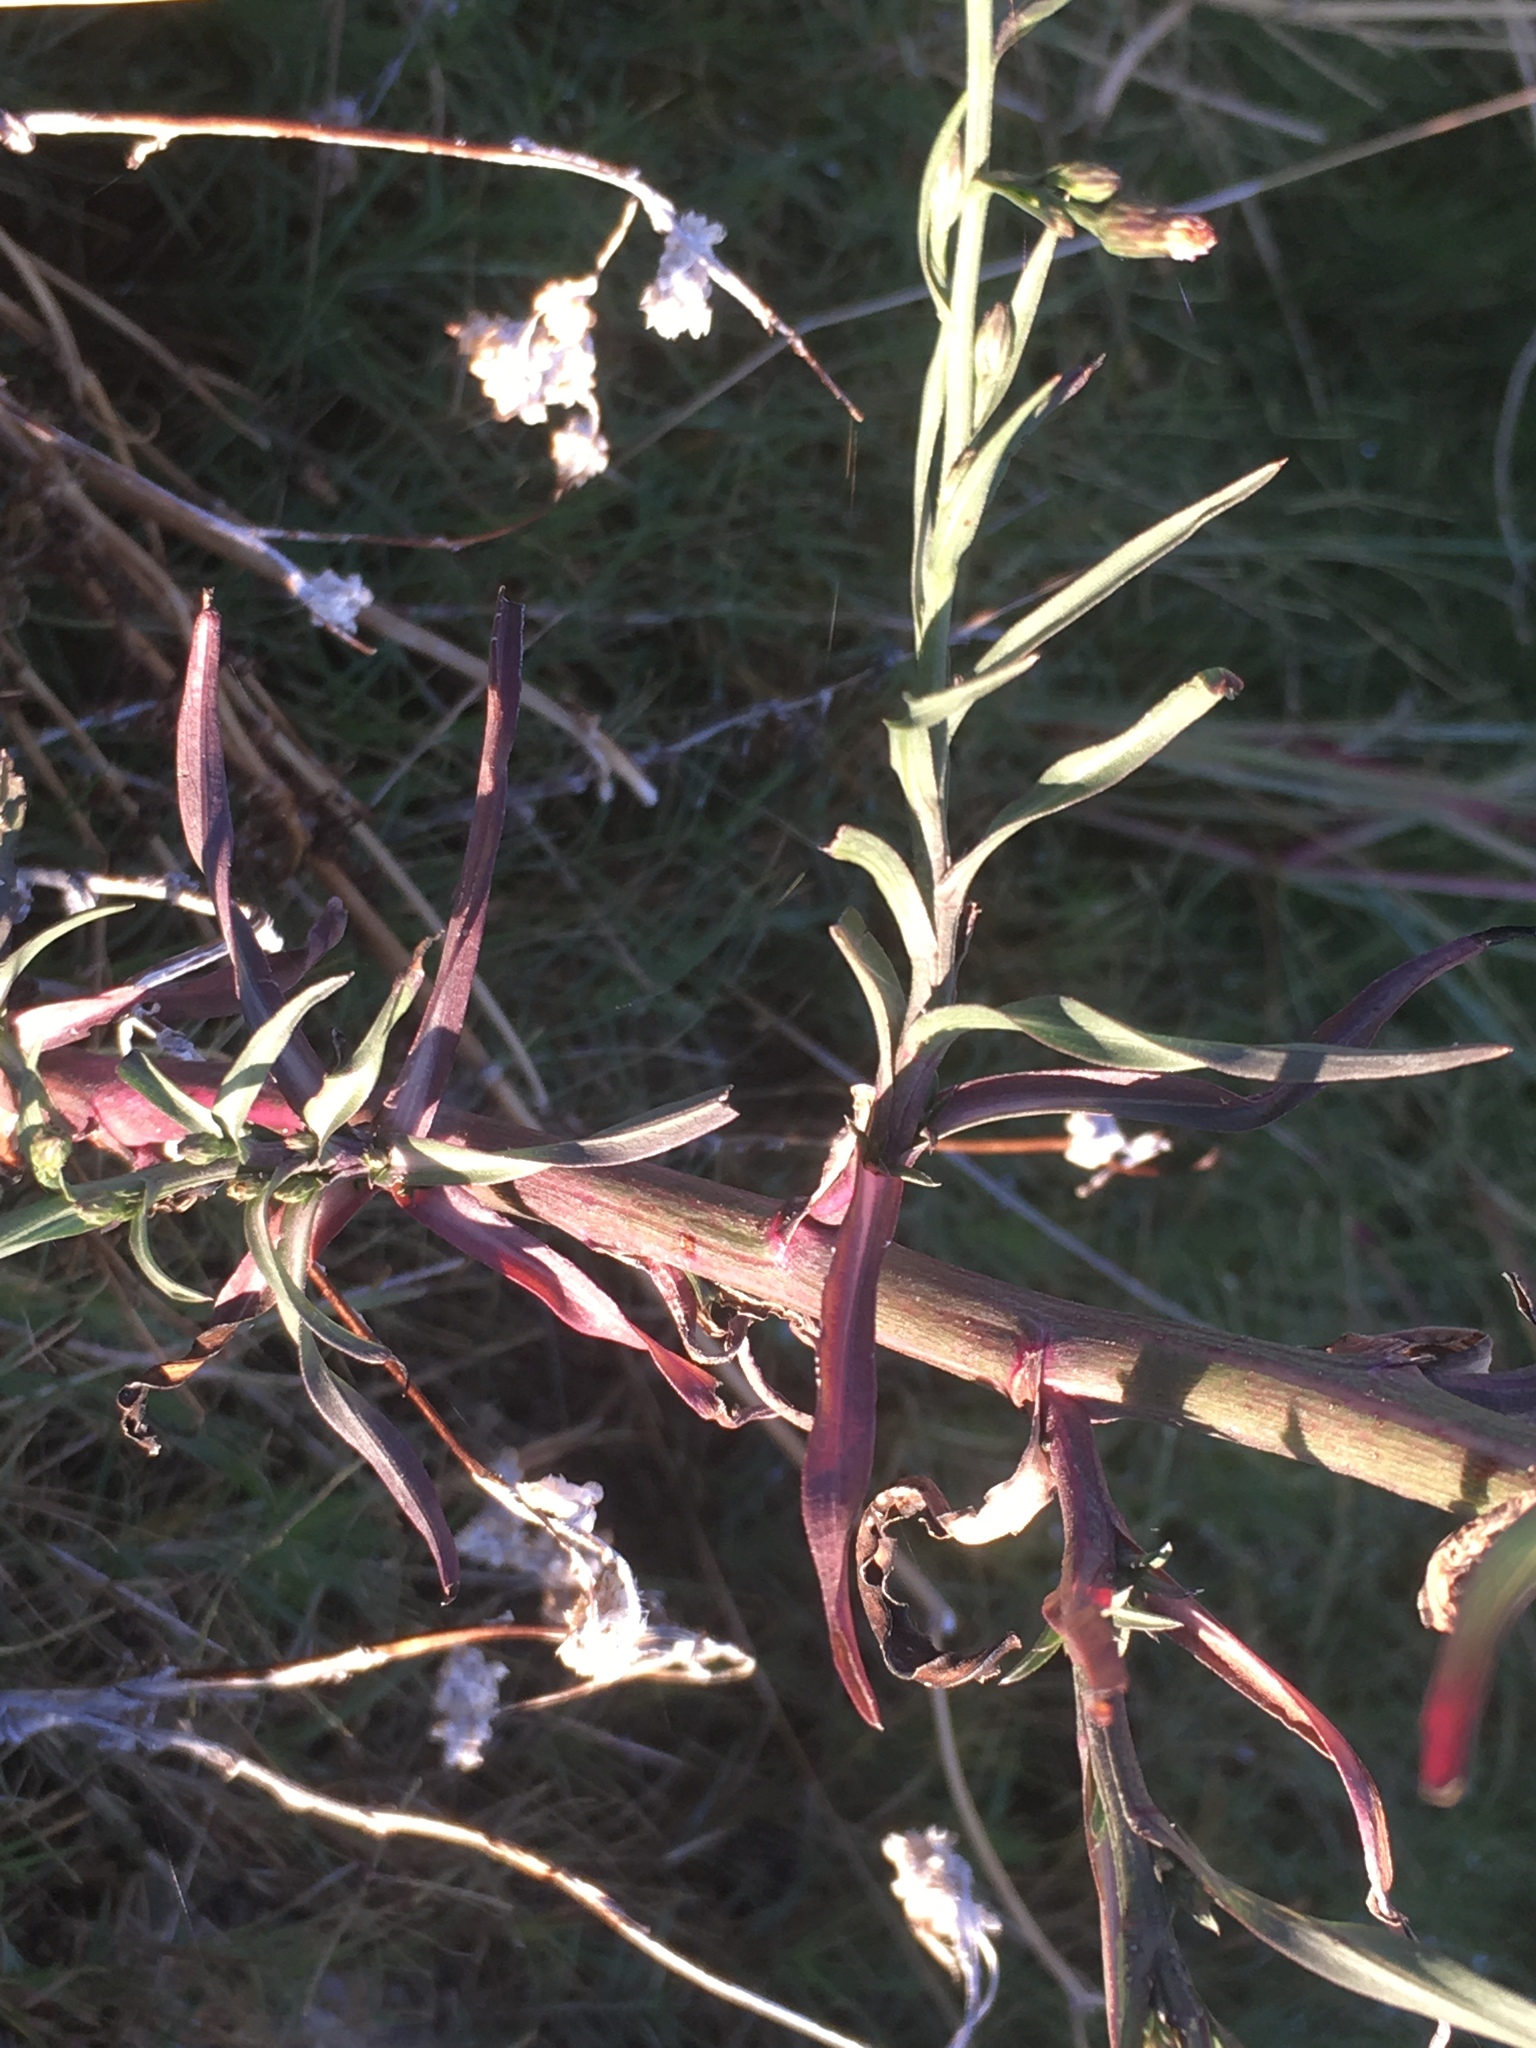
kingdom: Plantae
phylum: Tracheophyta
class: Magnoliopsida
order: Asterales
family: Asteraceae
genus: Symphyotrichum
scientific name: Symphyotrichum subulatum
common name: Annual saltmarsh aster
